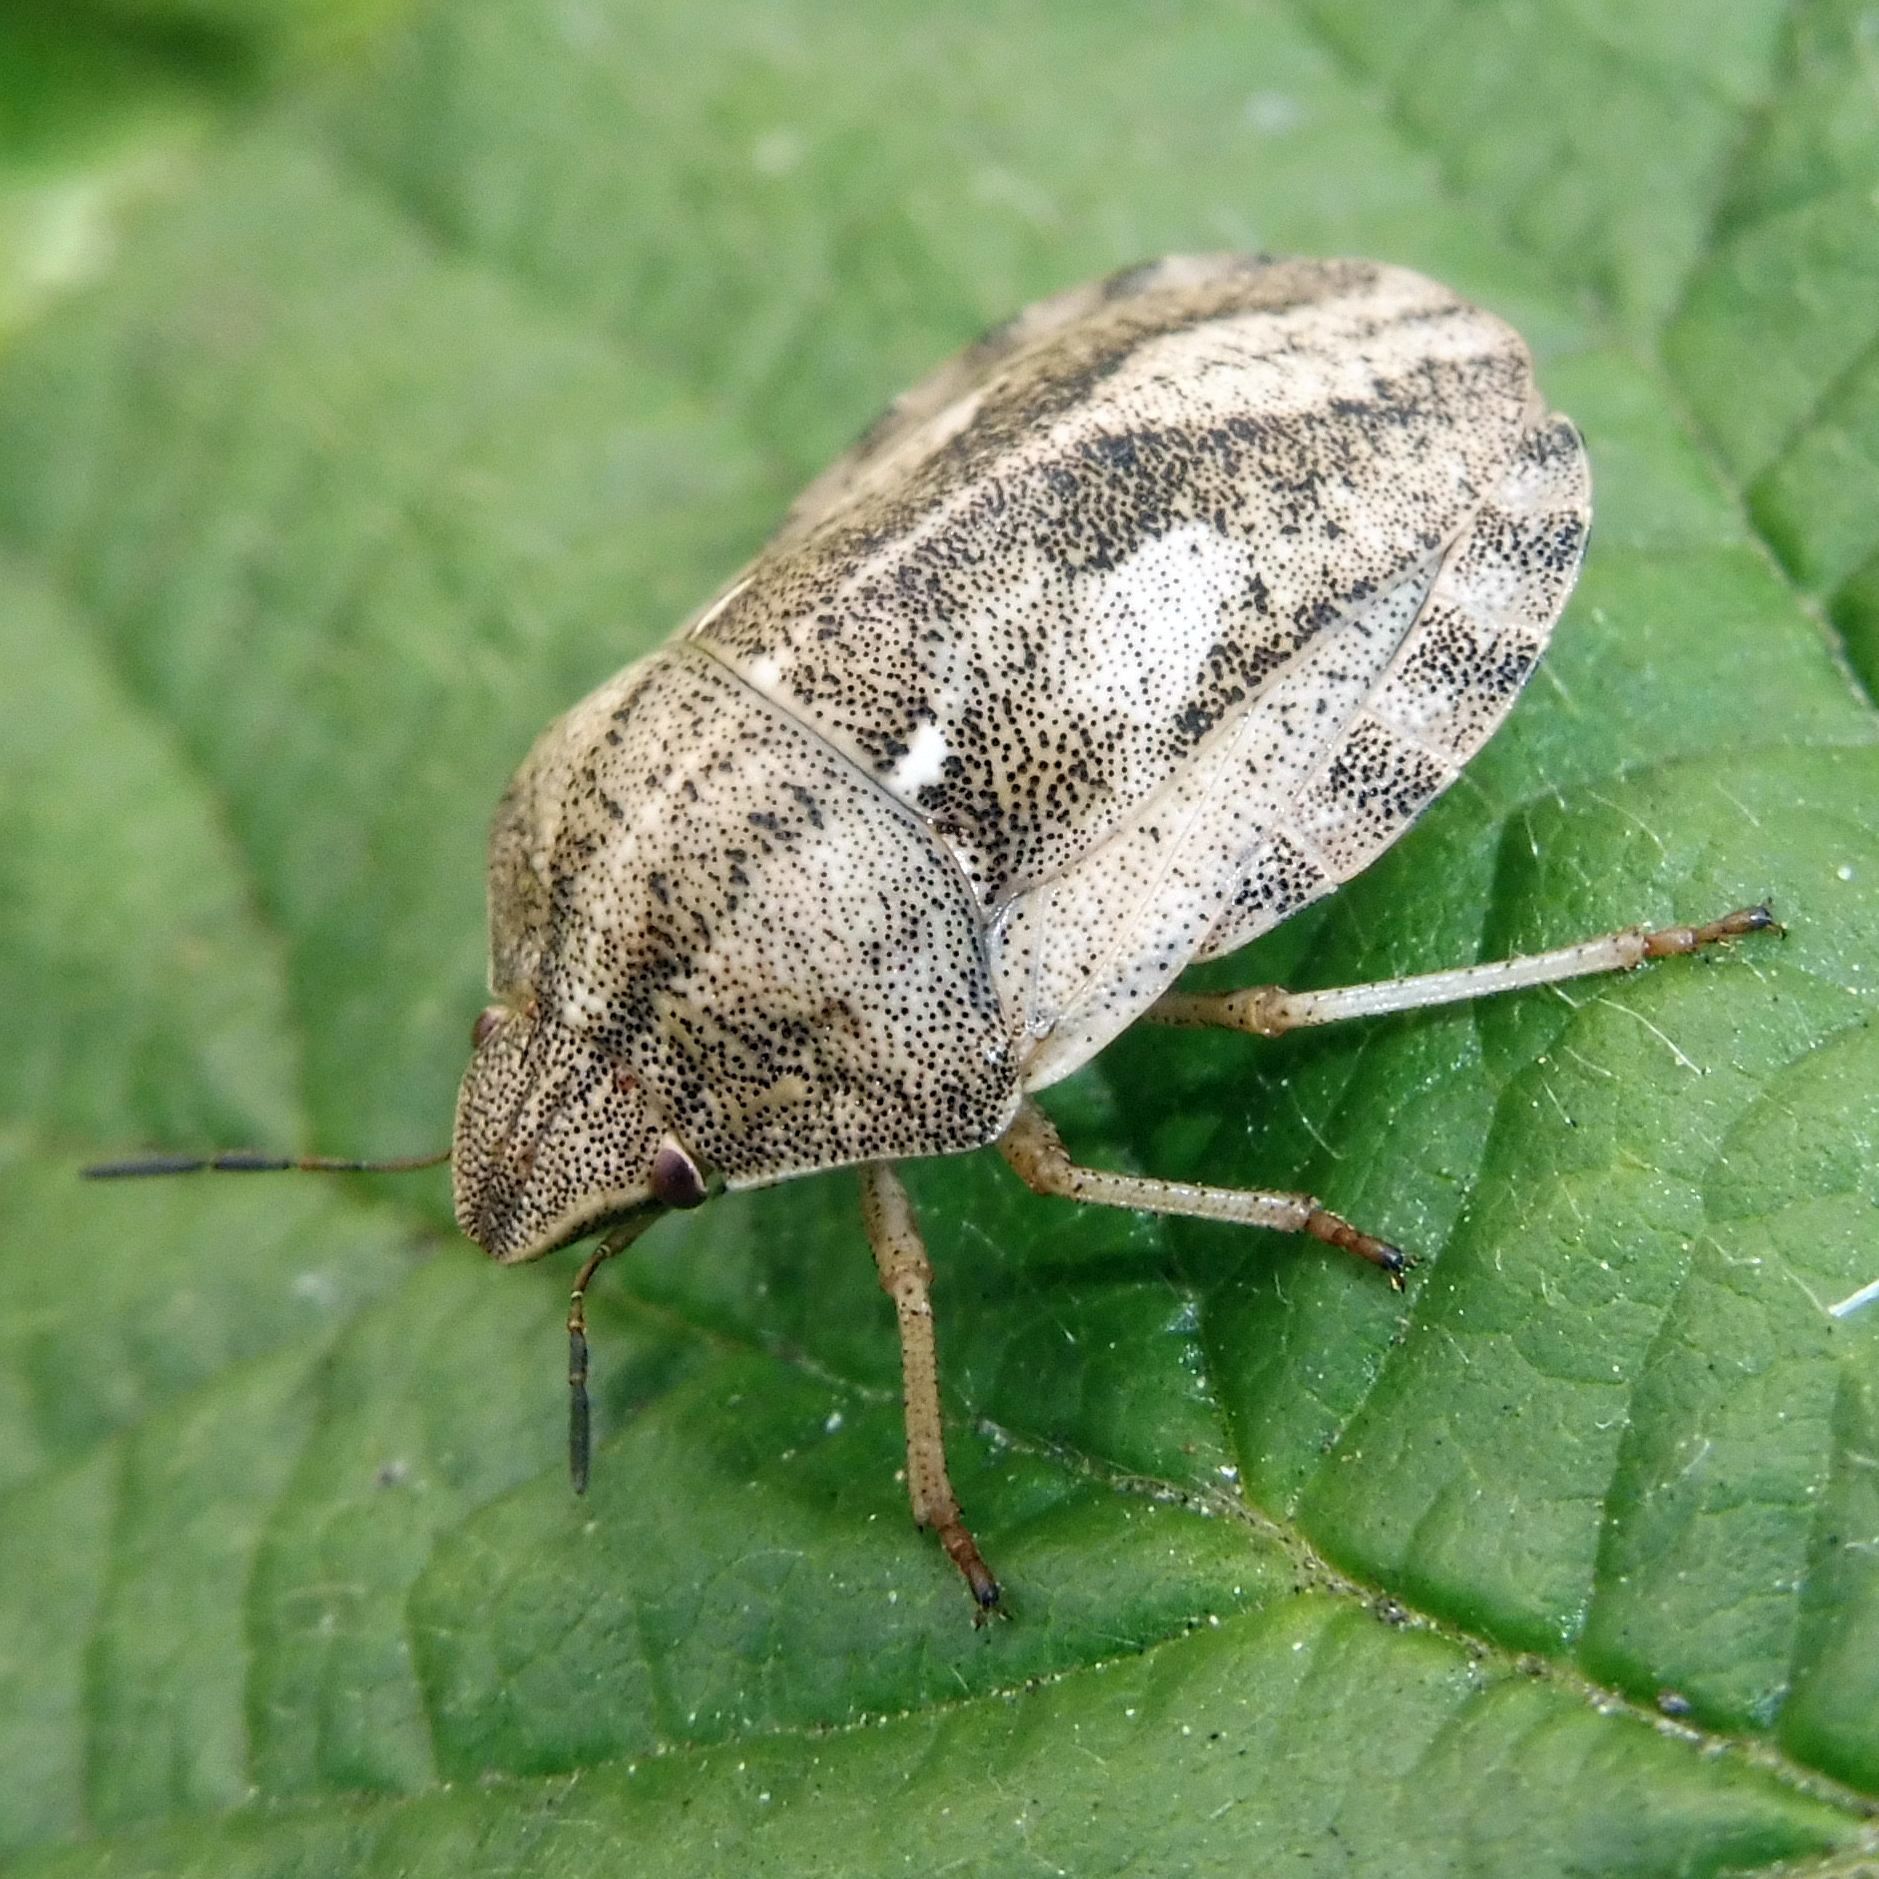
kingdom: Animalia
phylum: Arthropoda
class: Insecta
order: Hemiptera
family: Scutelleridae
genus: Eurygaster
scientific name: Eurygaster testudinaria
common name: Tortoise bug
